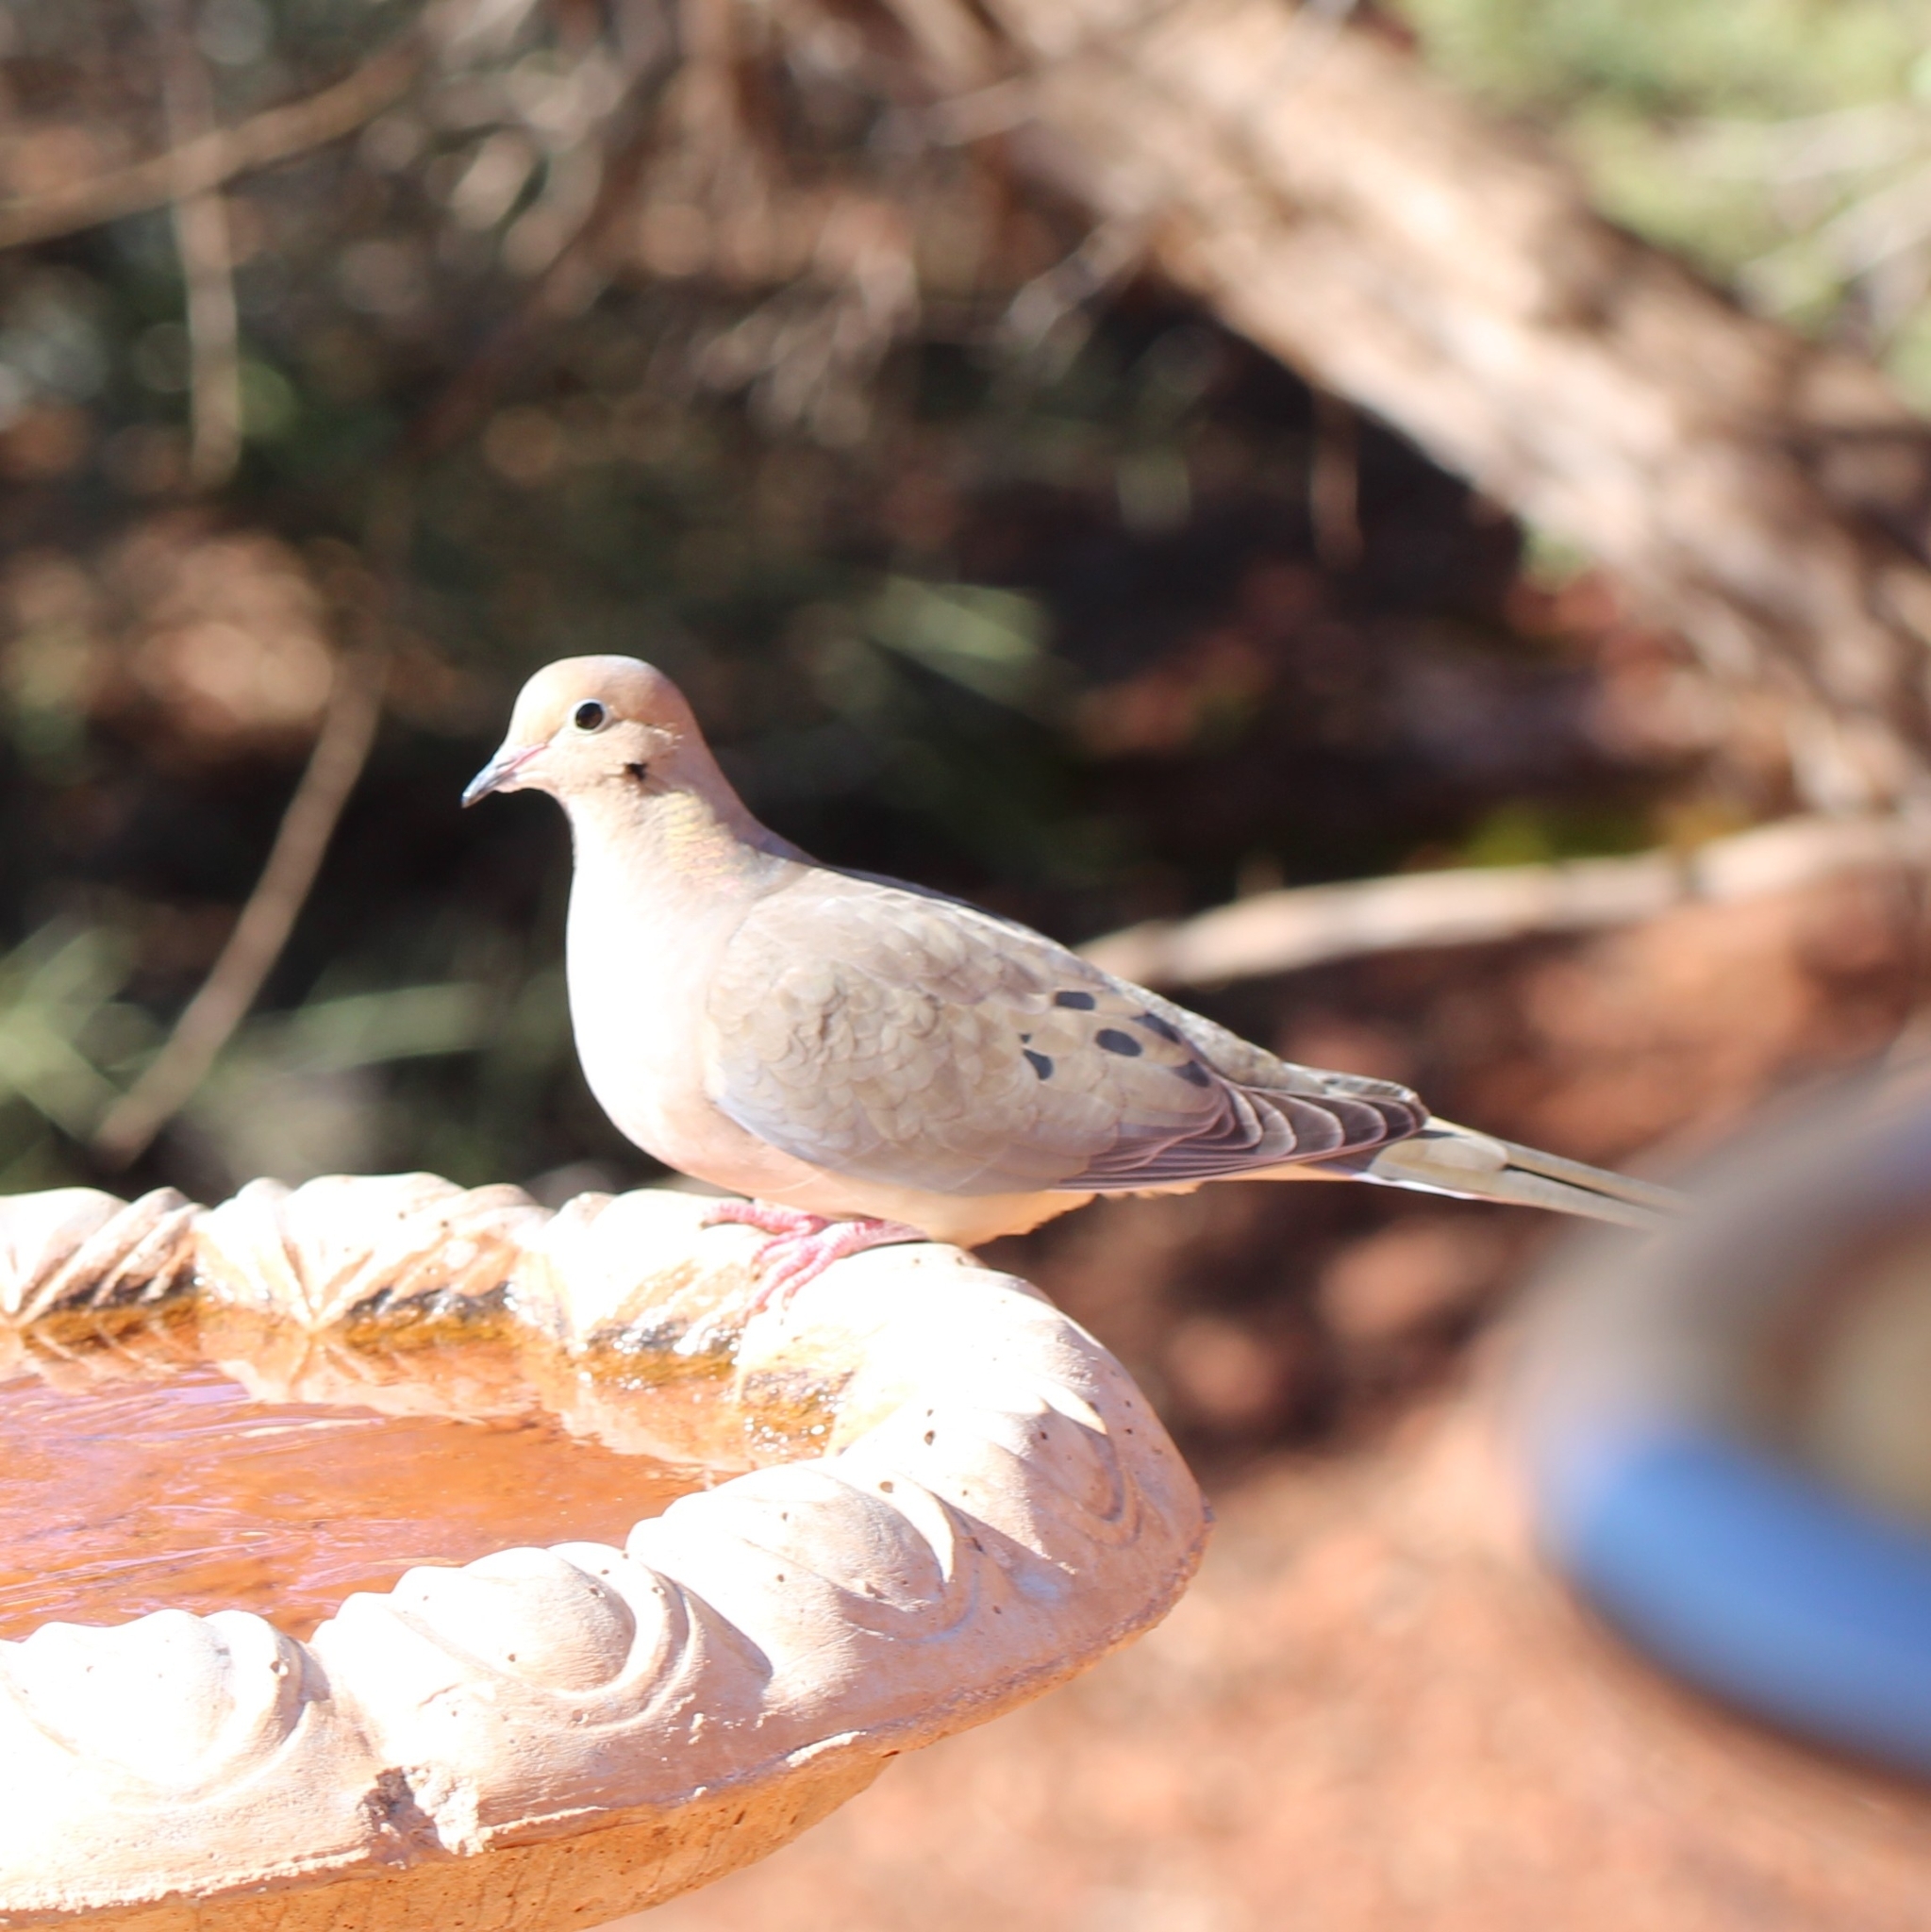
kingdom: Animalia
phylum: Chordata
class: Aves
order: Columbiformes
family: Columbidae
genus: Zenaida
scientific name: Zenaida macroura
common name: Mourning dove
